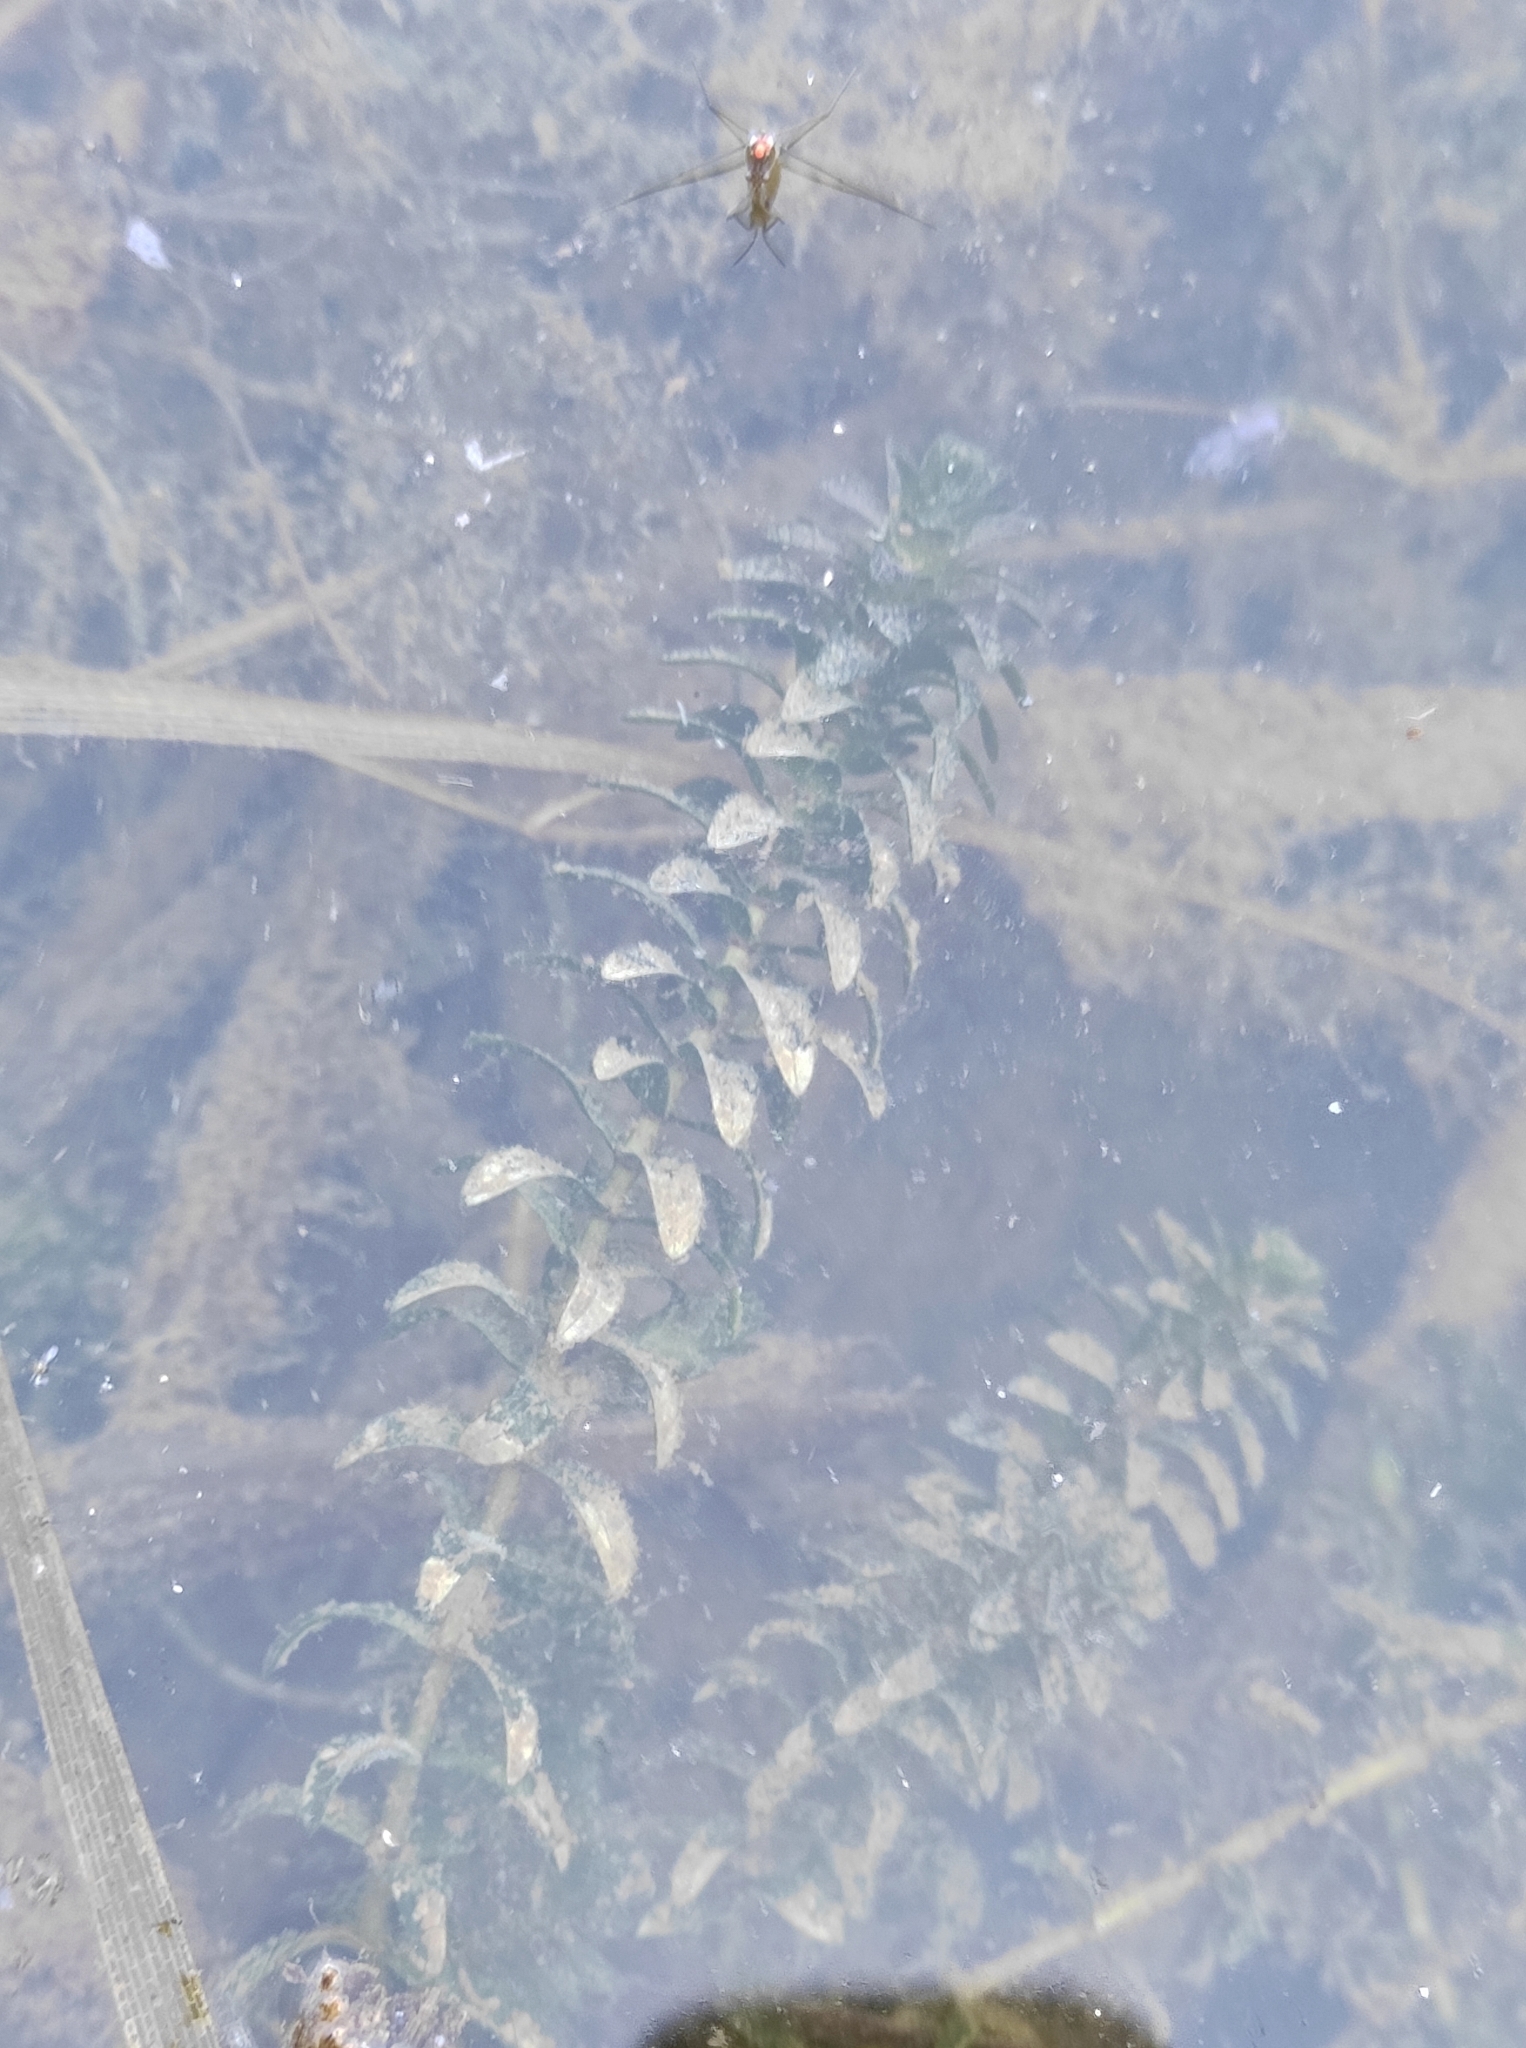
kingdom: Plantae
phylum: Tracheophyta
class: Liliopsida
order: Alismatales
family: Hydrocharitaceae
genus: Elodea
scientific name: Elodea canadensis
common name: Canadian waterweed
